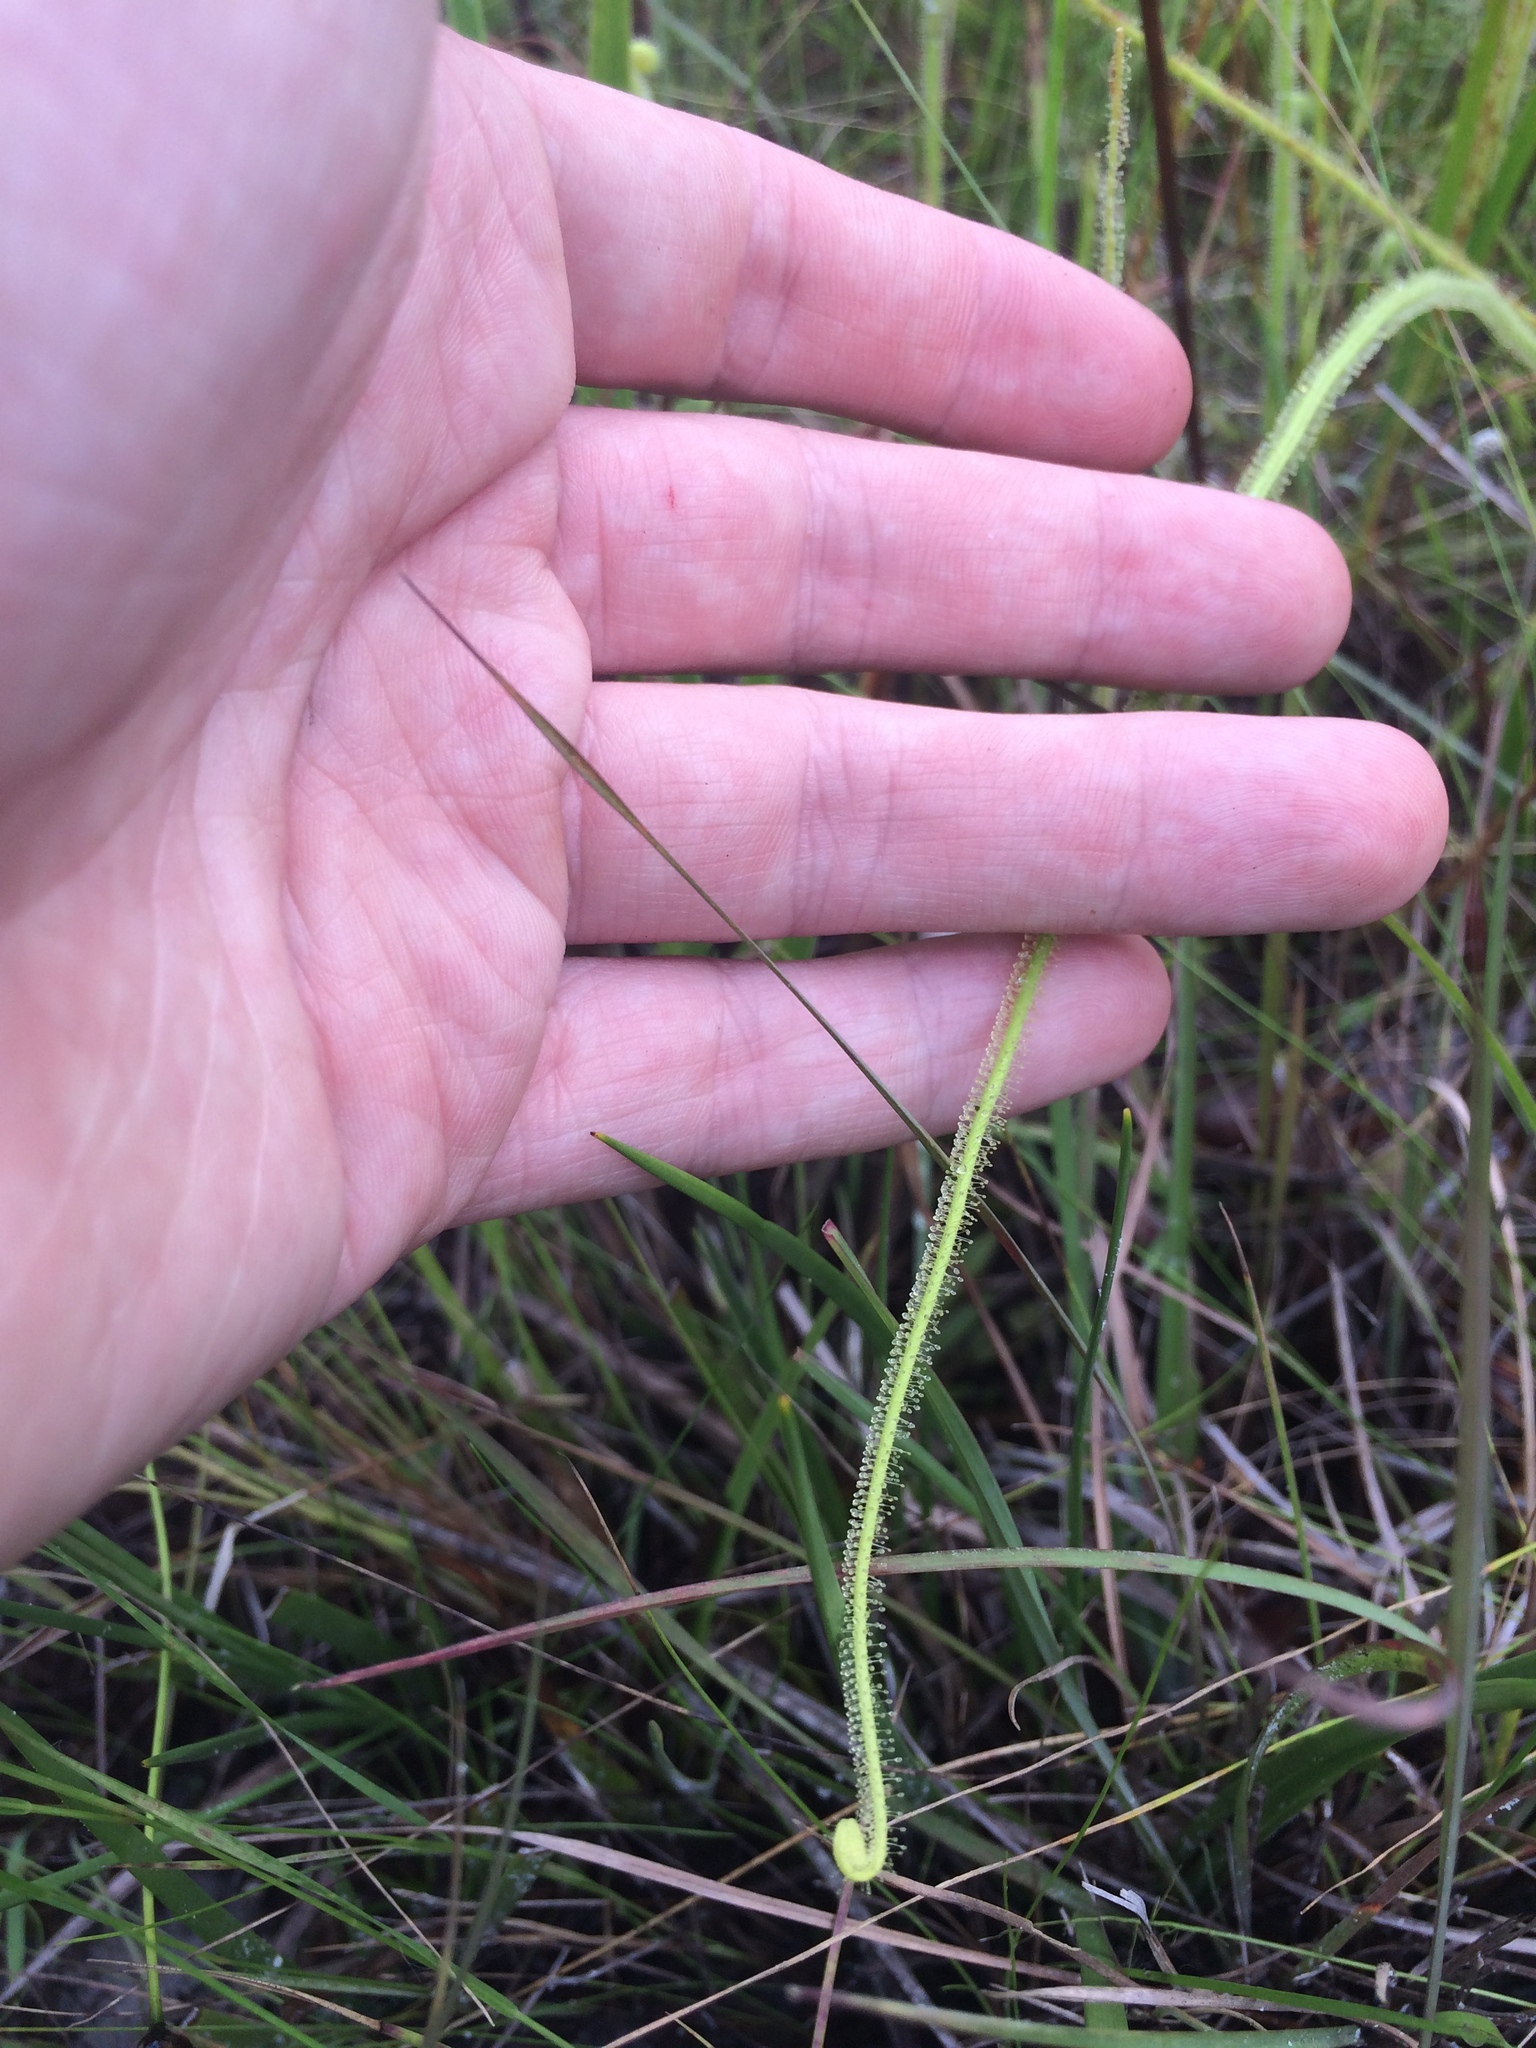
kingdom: Plantae
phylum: Tracheophyta
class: Magnoliopsida
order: Caryophyllales
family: Droseraceae
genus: Drosera
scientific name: Drosera filiformis
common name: Dew-thread
